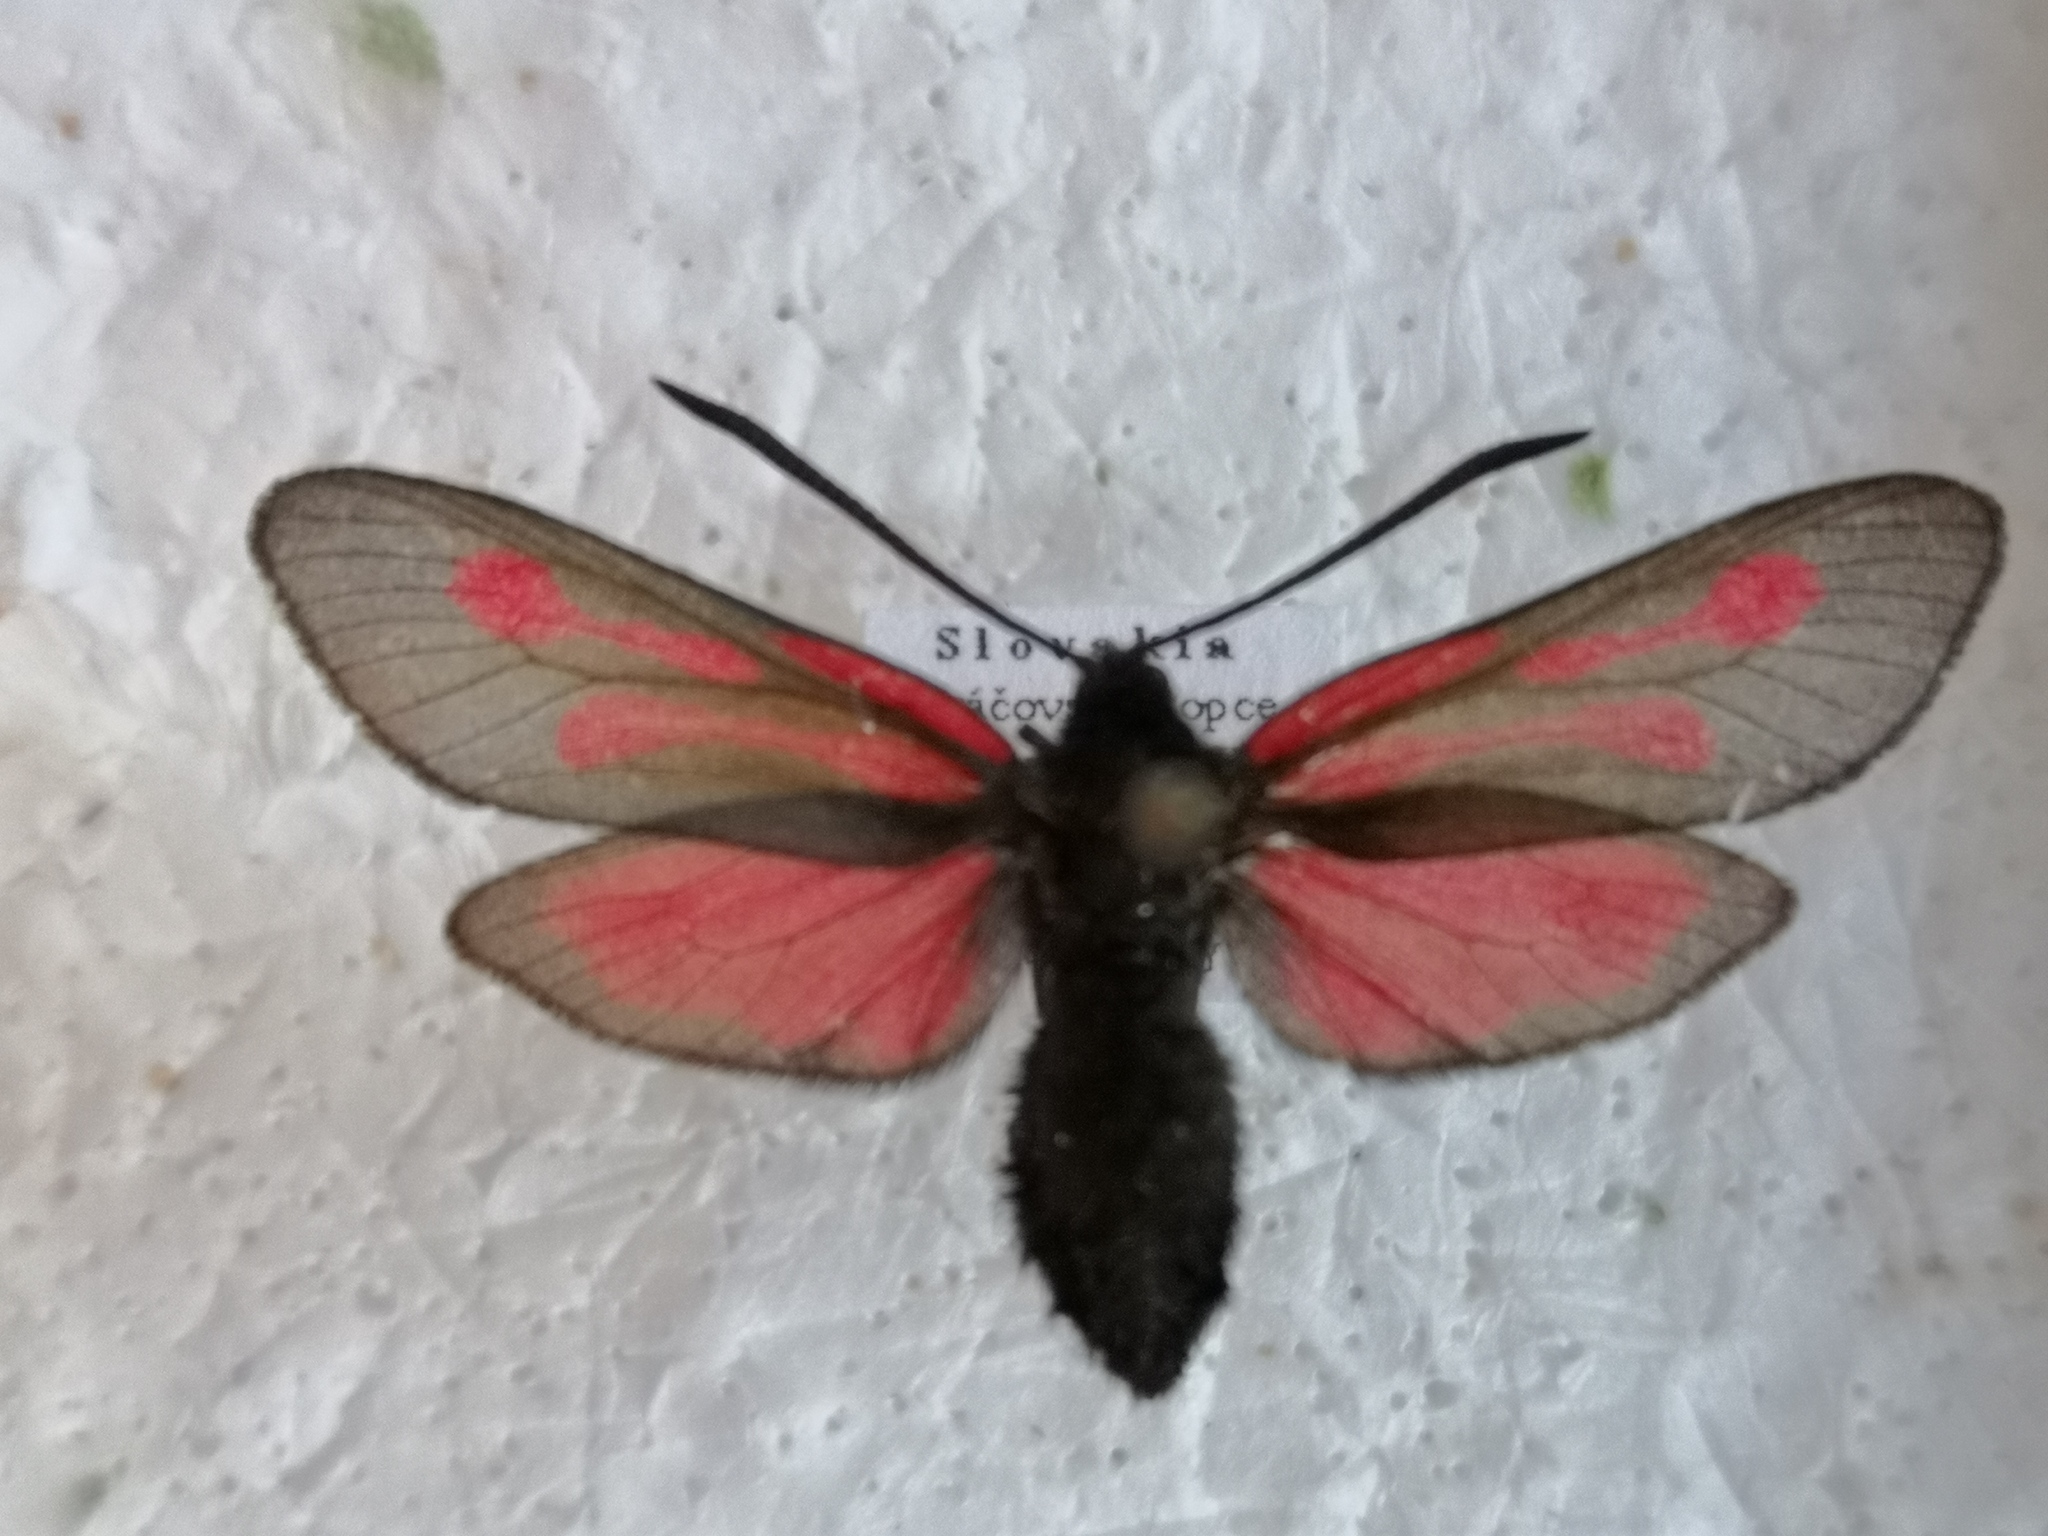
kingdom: Animalia
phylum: Arthropoda
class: Insecta
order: Lepidoptera
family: Zygaenidae
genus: Zygaena
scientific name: Zygaena osterodensis
